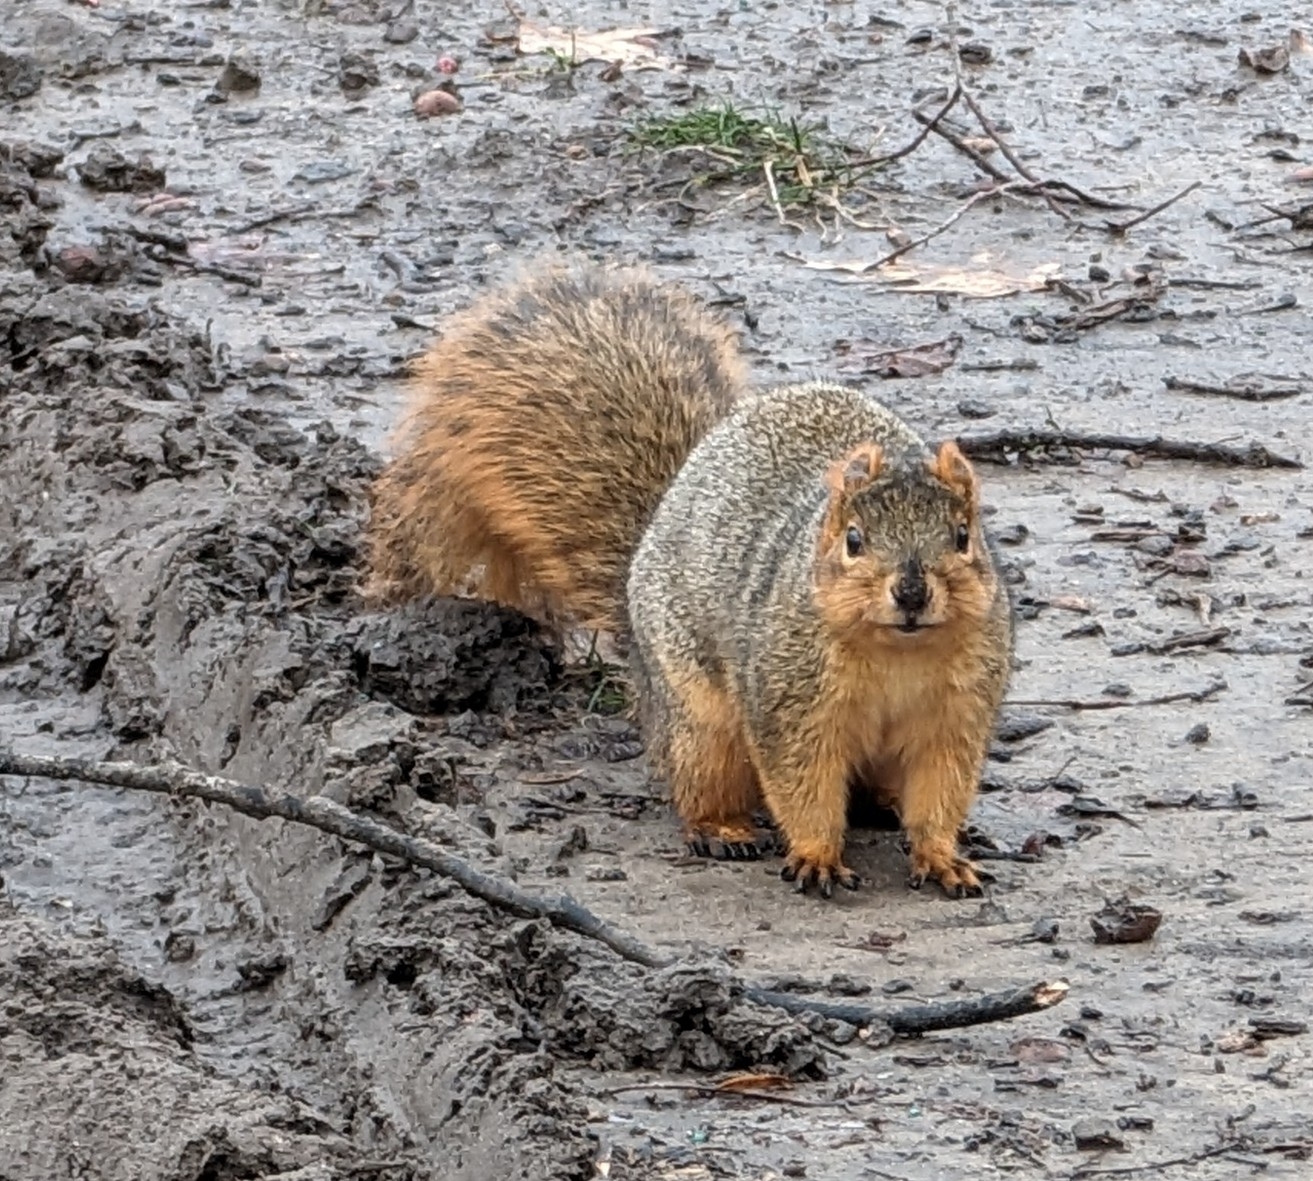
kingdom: Animalia
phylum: Chordata
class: Mammalia
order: Rodentia
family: Sciuridae
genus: Sciurus
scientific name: Sciurus niger
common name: Fox squirrel
